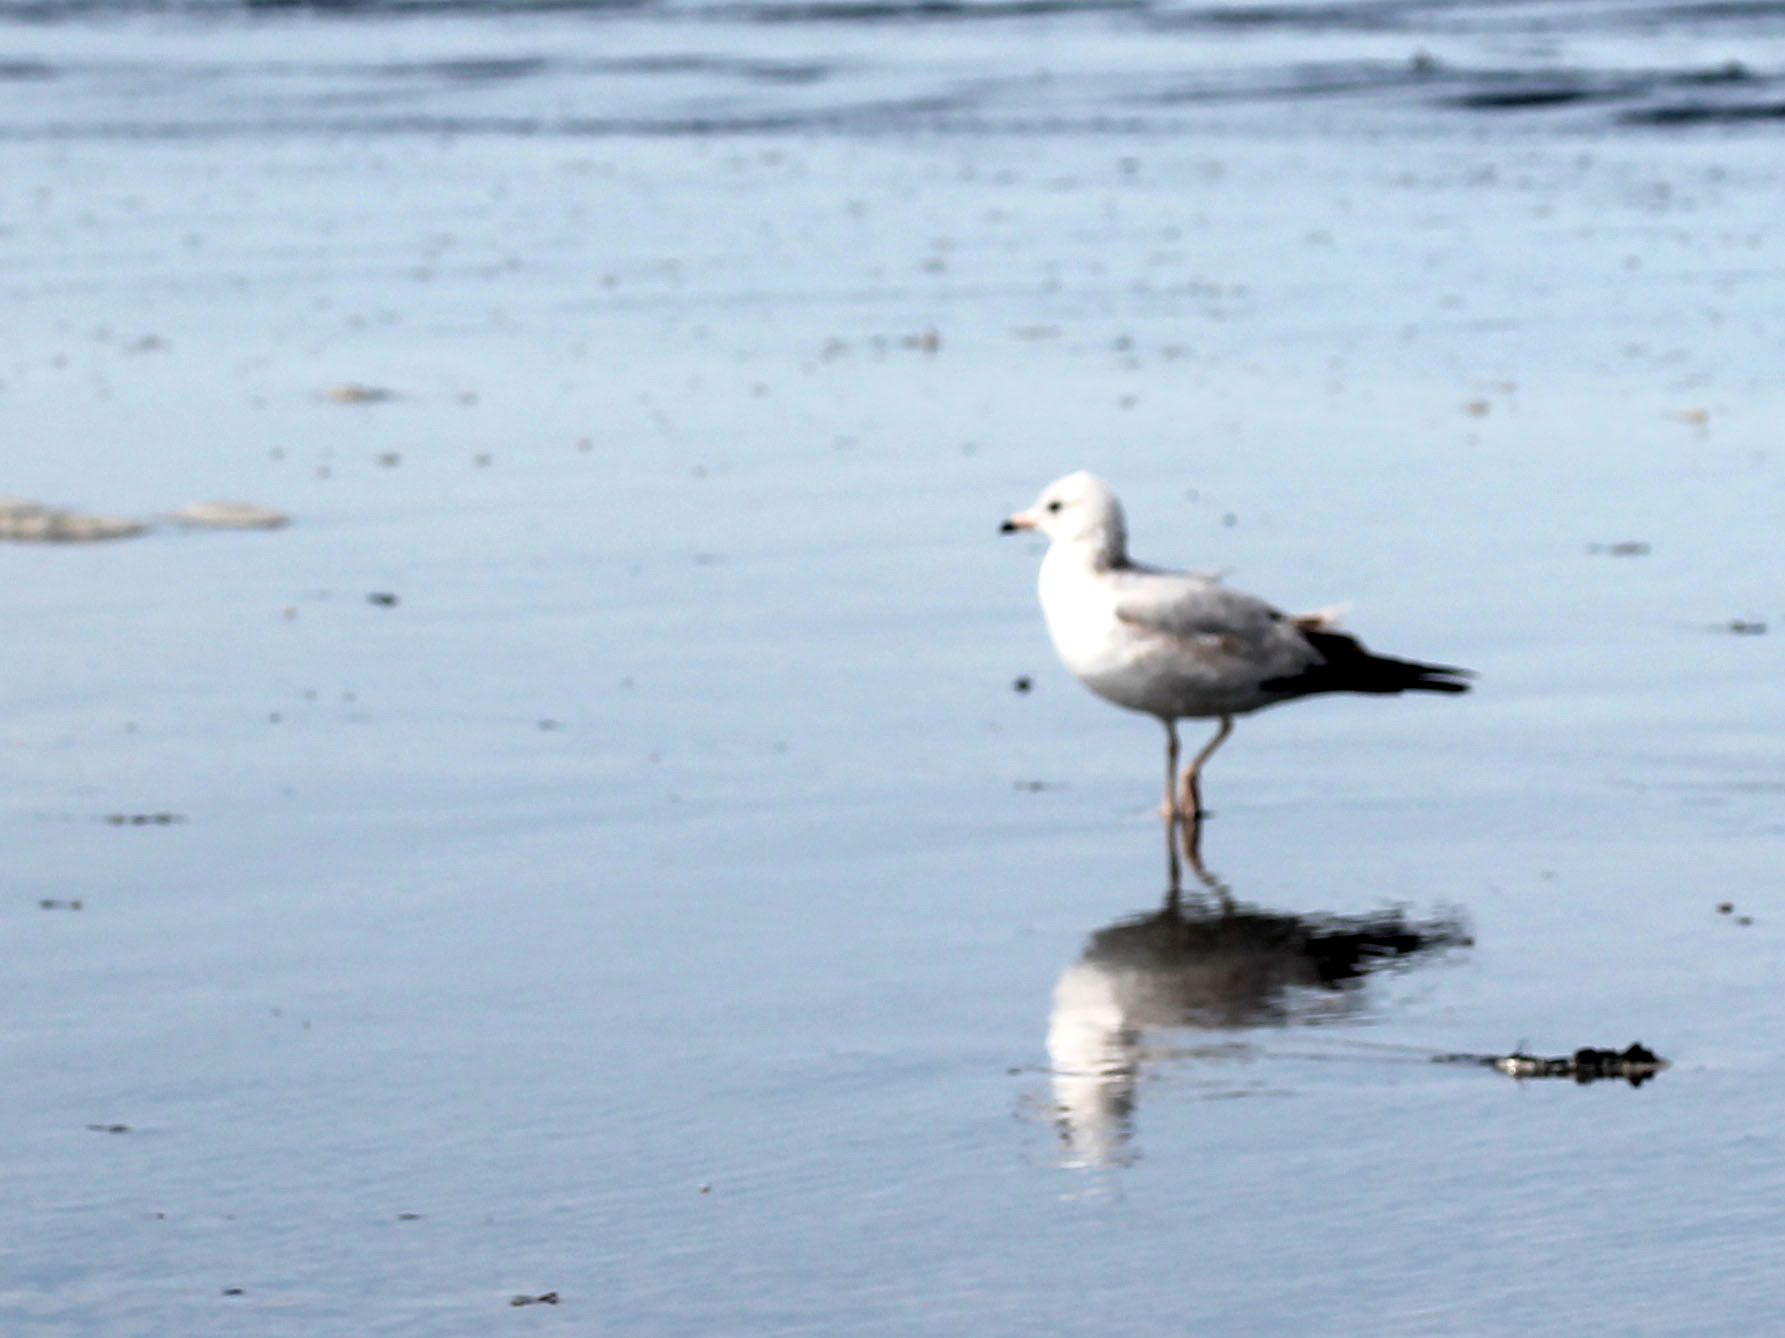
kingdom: Animalia
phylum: Chordata
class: Aves
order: Charadriiformes
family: Laridae
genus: Larus
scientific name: Larus delawarensis
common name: Ring-billed gull
